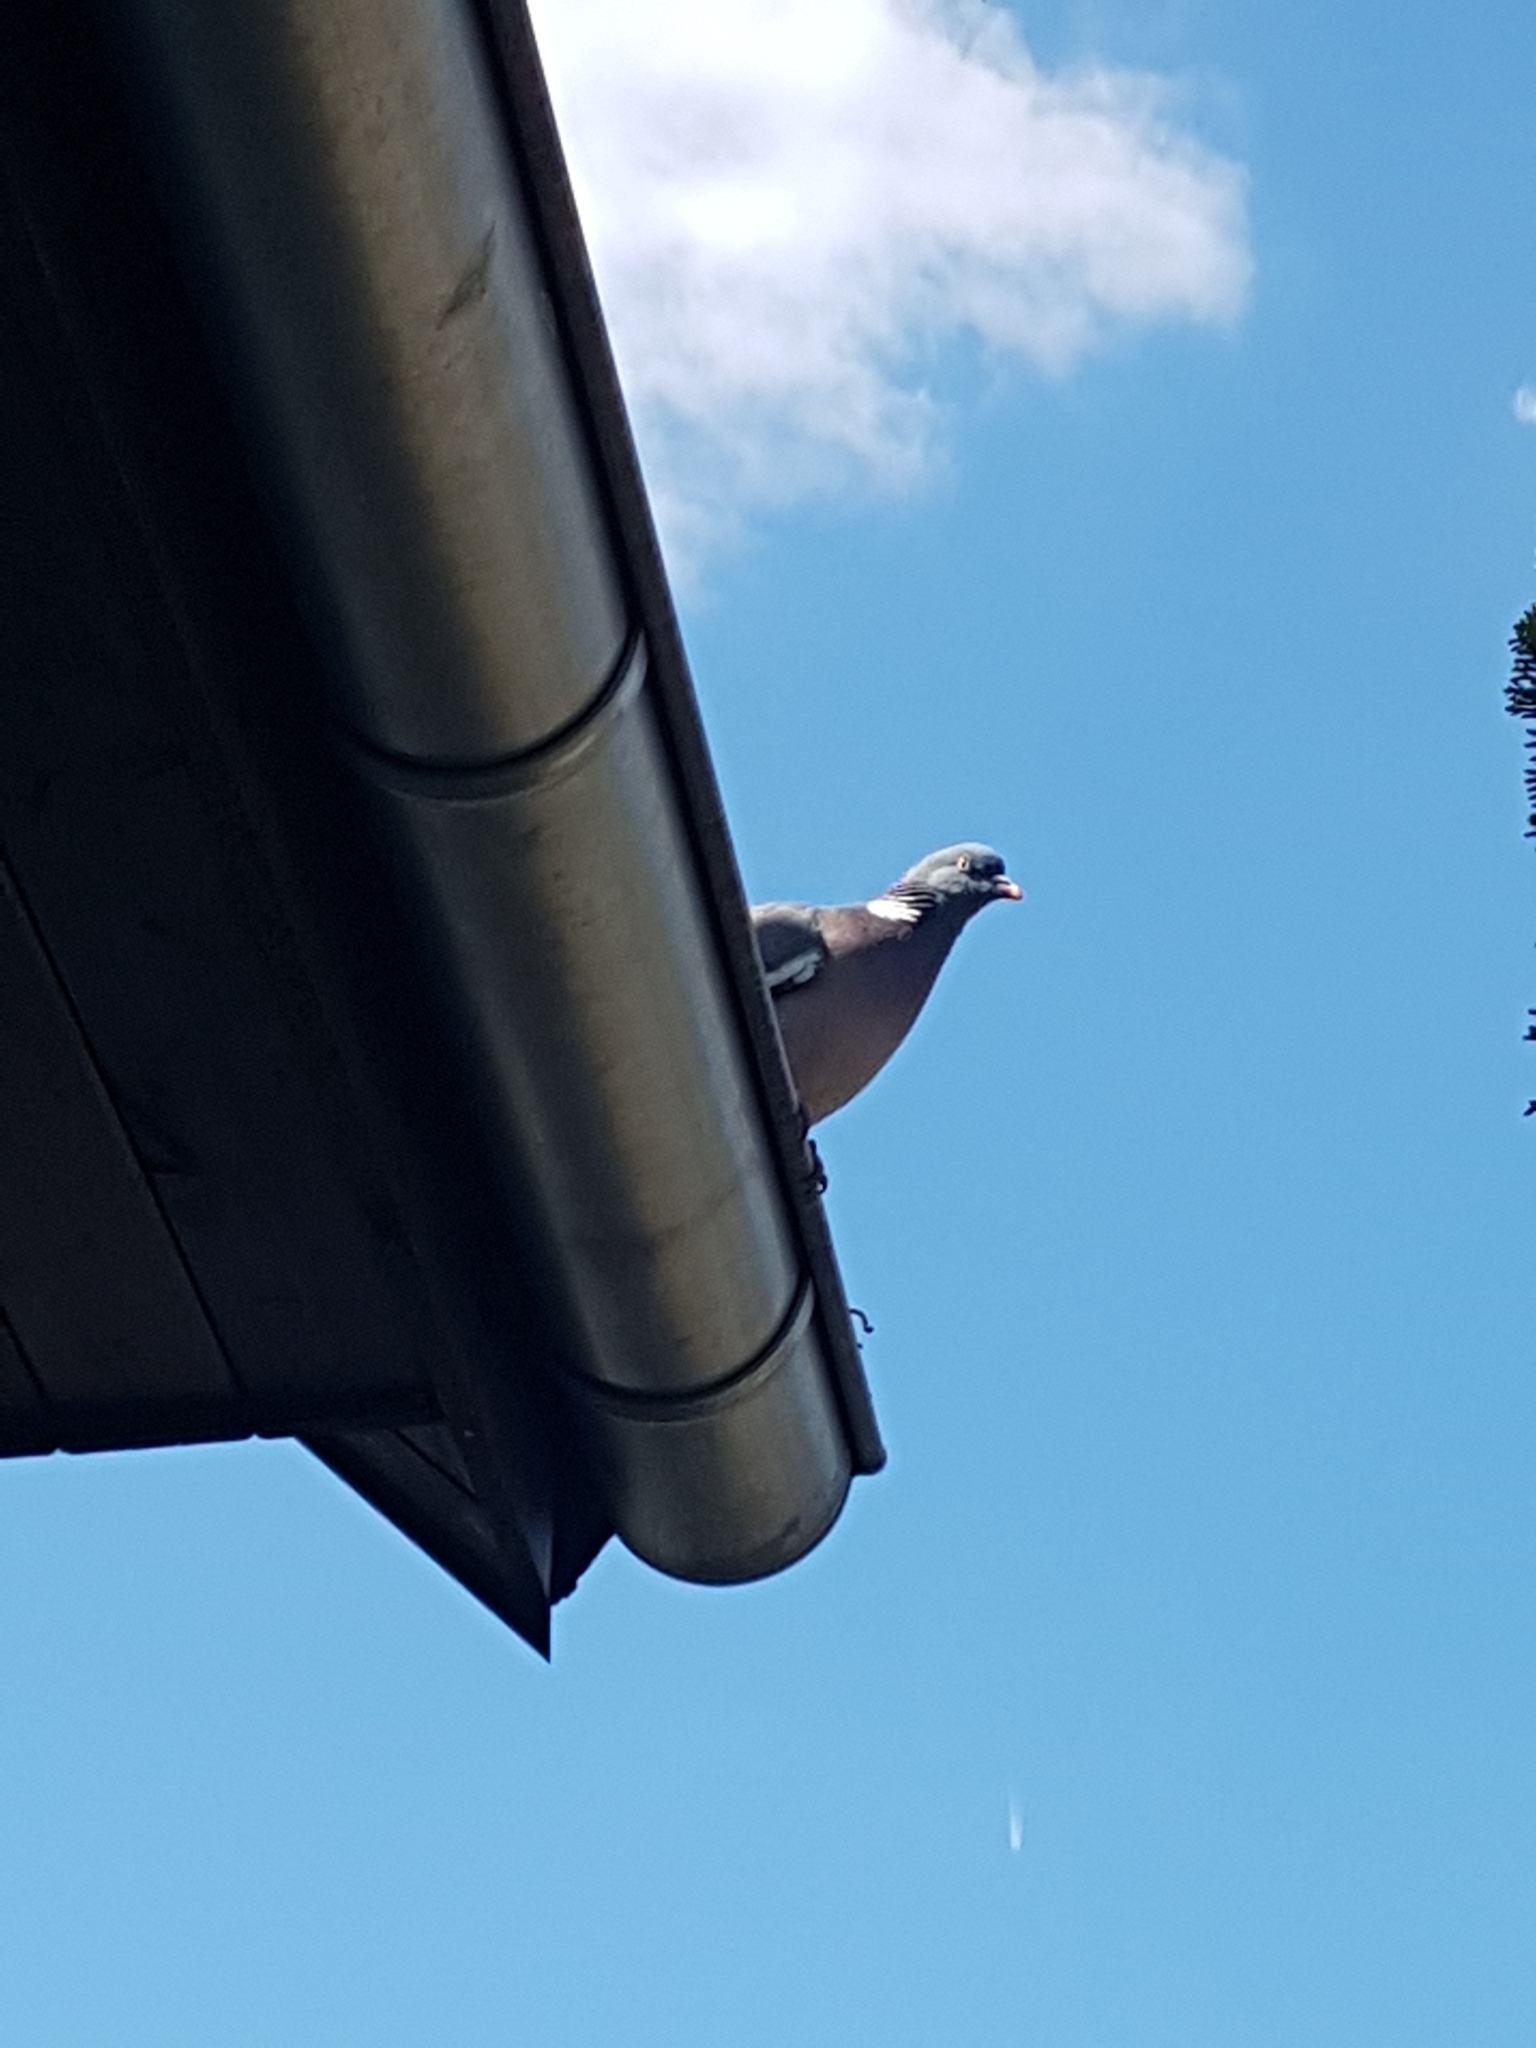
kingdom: Animalia
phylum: Chordata
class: Aves
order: Columbiformes
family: Columbidae
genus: Columba
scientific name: Columba palumbus
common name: Common wood pigeon
